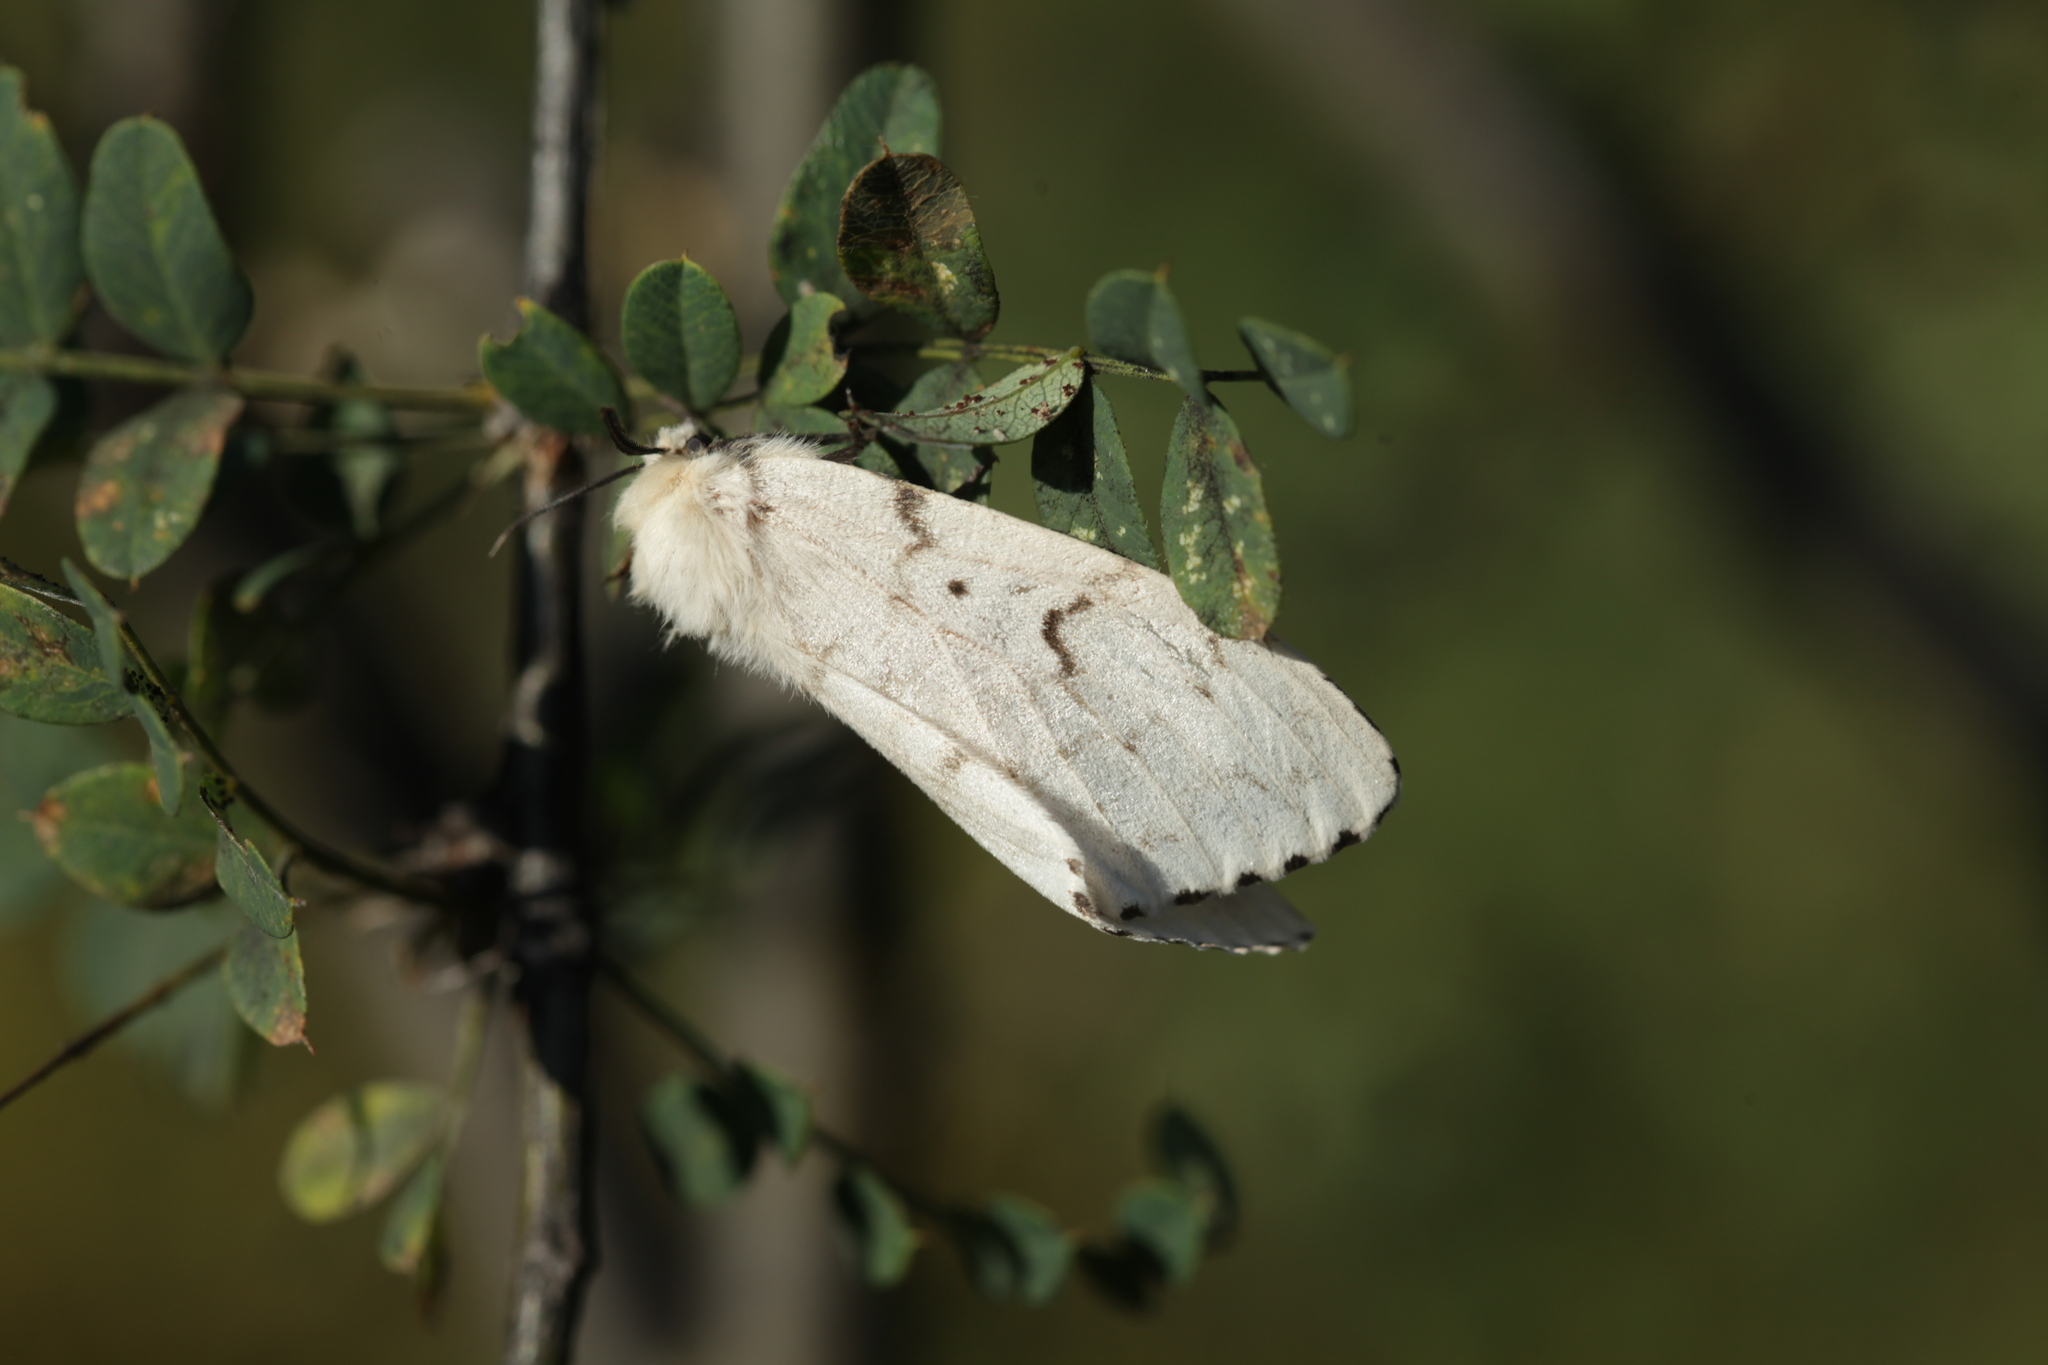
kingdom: Animalia
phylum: Arthropoda
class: Insecta
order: Lepidoptera
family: Erebidae
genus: Lymantria
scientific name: Lymantria dispar
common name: Gypsy moth
